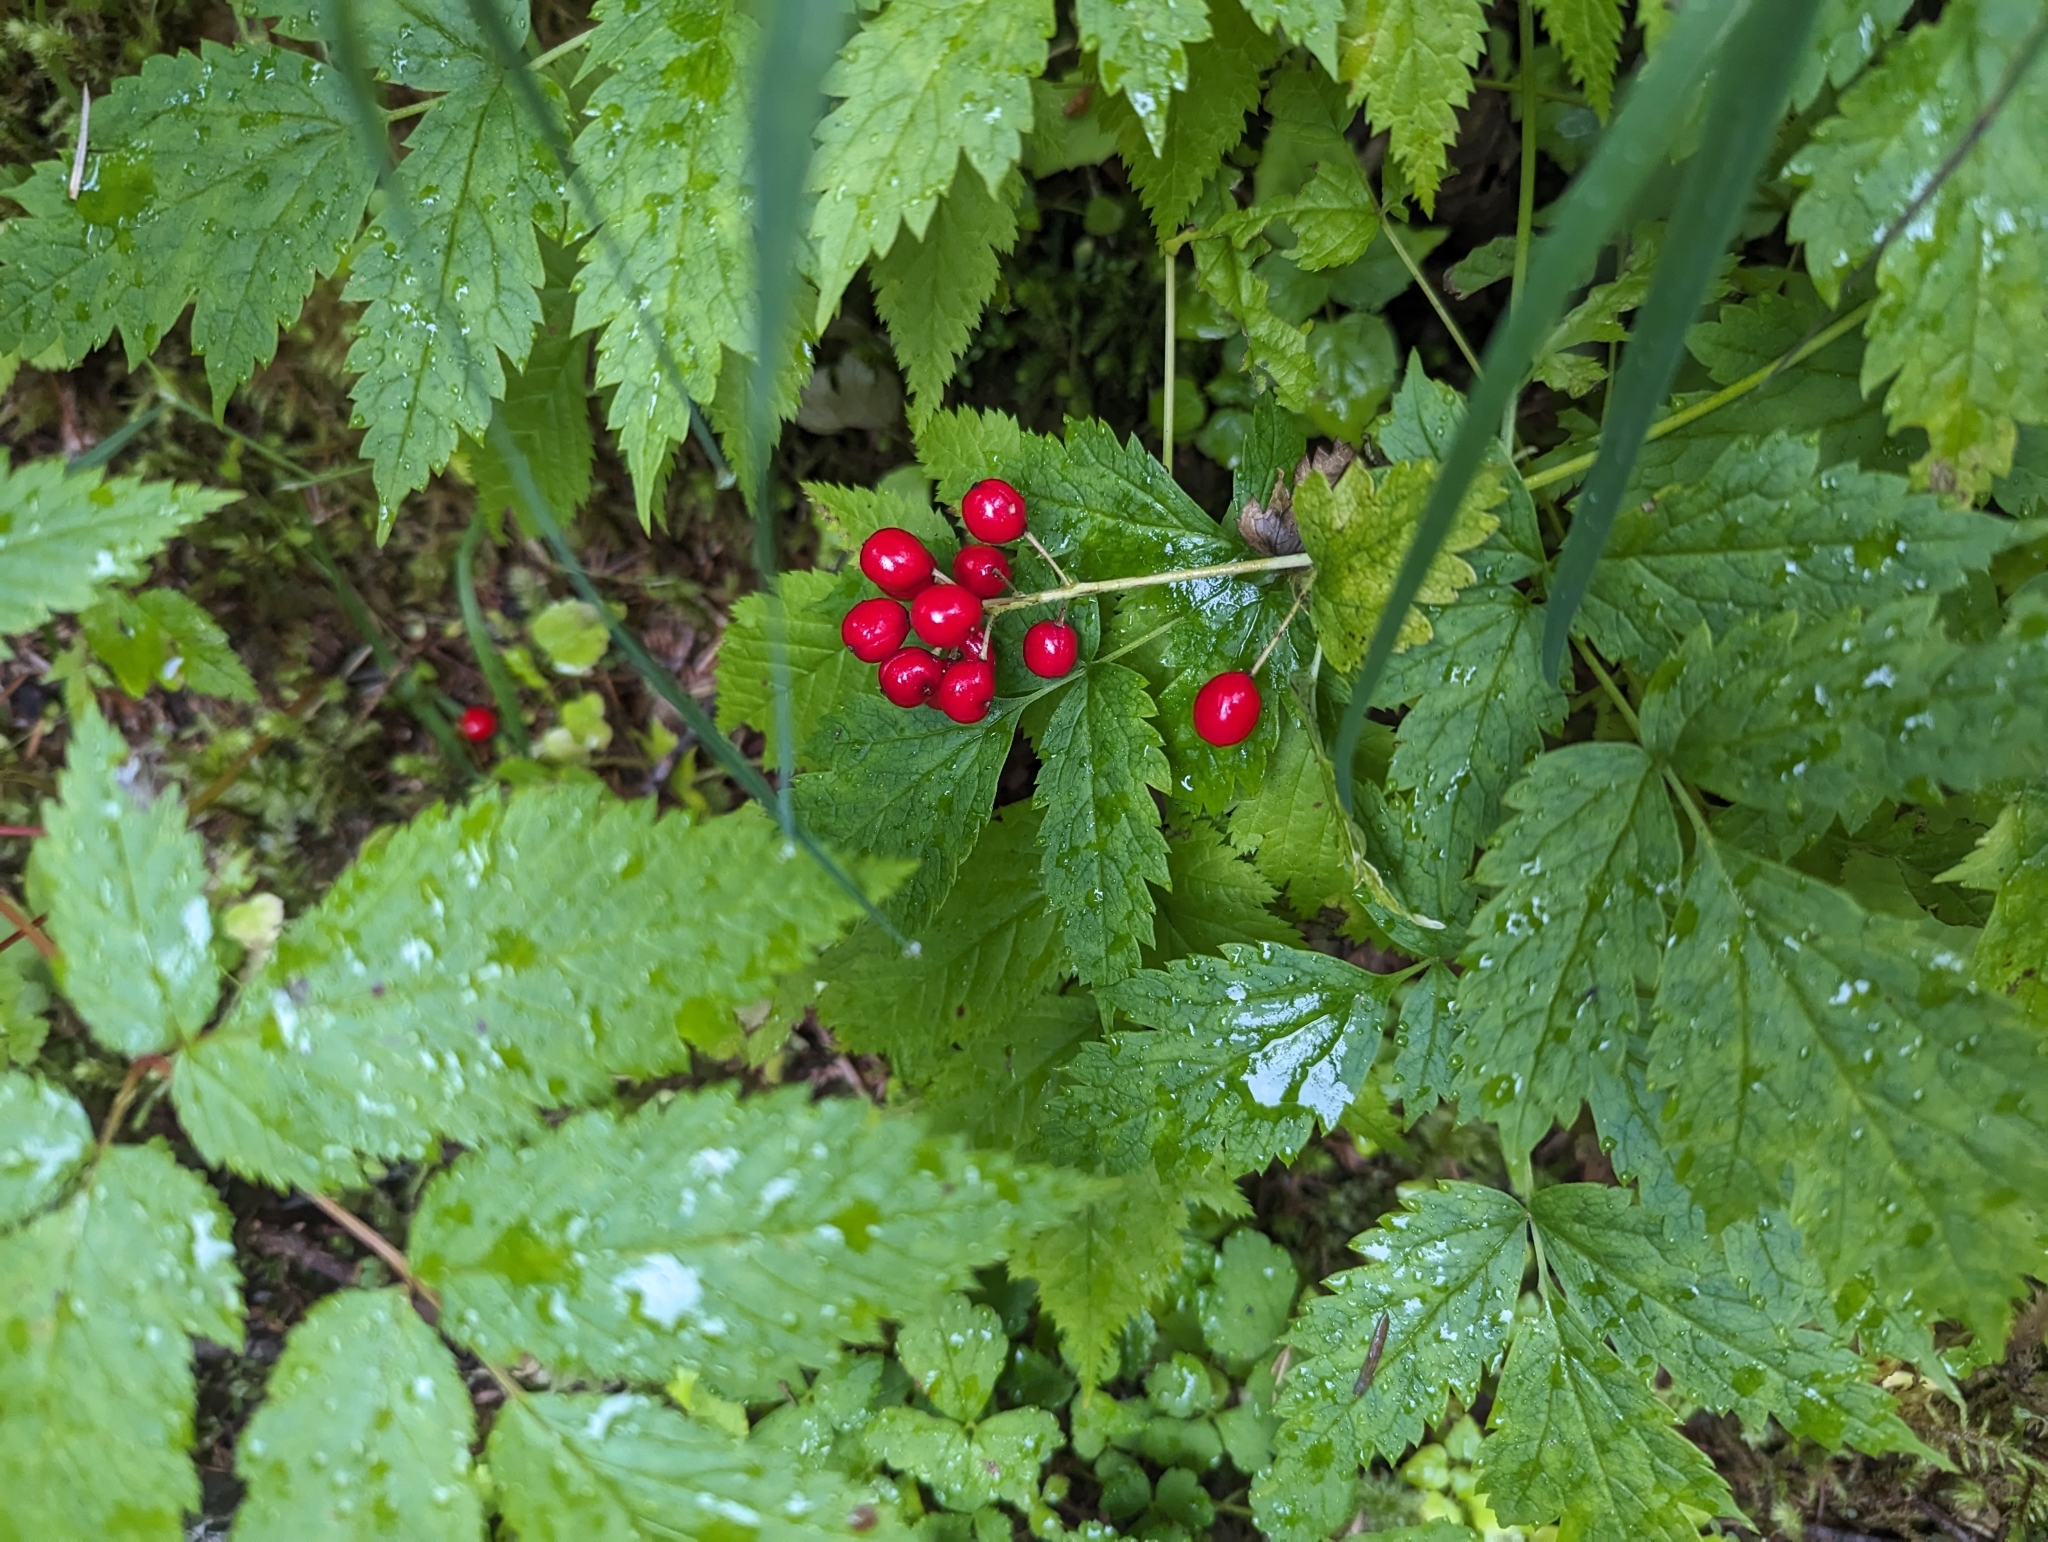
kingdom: Plantae
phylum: Tracheophyta
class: Magnoliopsida
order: Ranunculales
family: Ranunculaceae
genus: Actaea
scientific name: Actaea rubra
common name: Red baneberry
